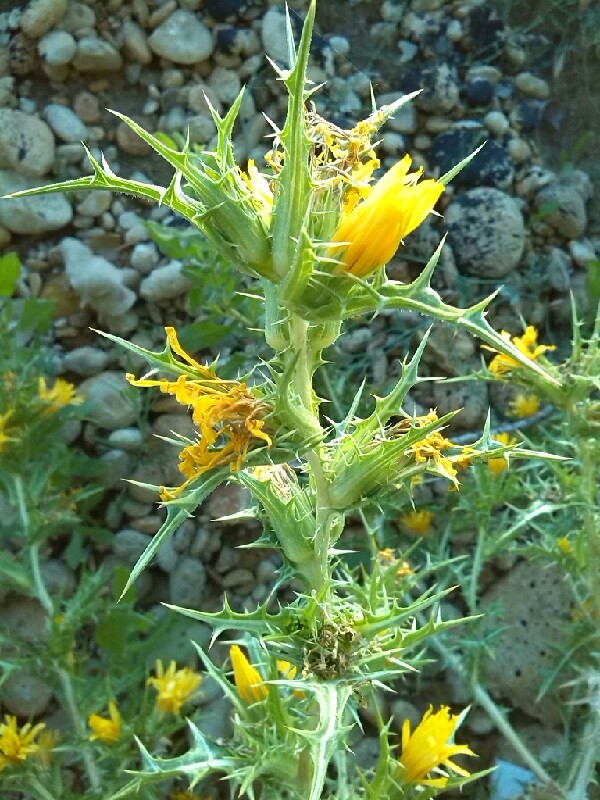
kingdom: Plantae
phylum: Tracheophyta
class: Magnoliopsida
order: Asterales
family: Asteraceae
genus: Scolymus
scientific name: Scolymus hispanicus
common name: Golden thistle
